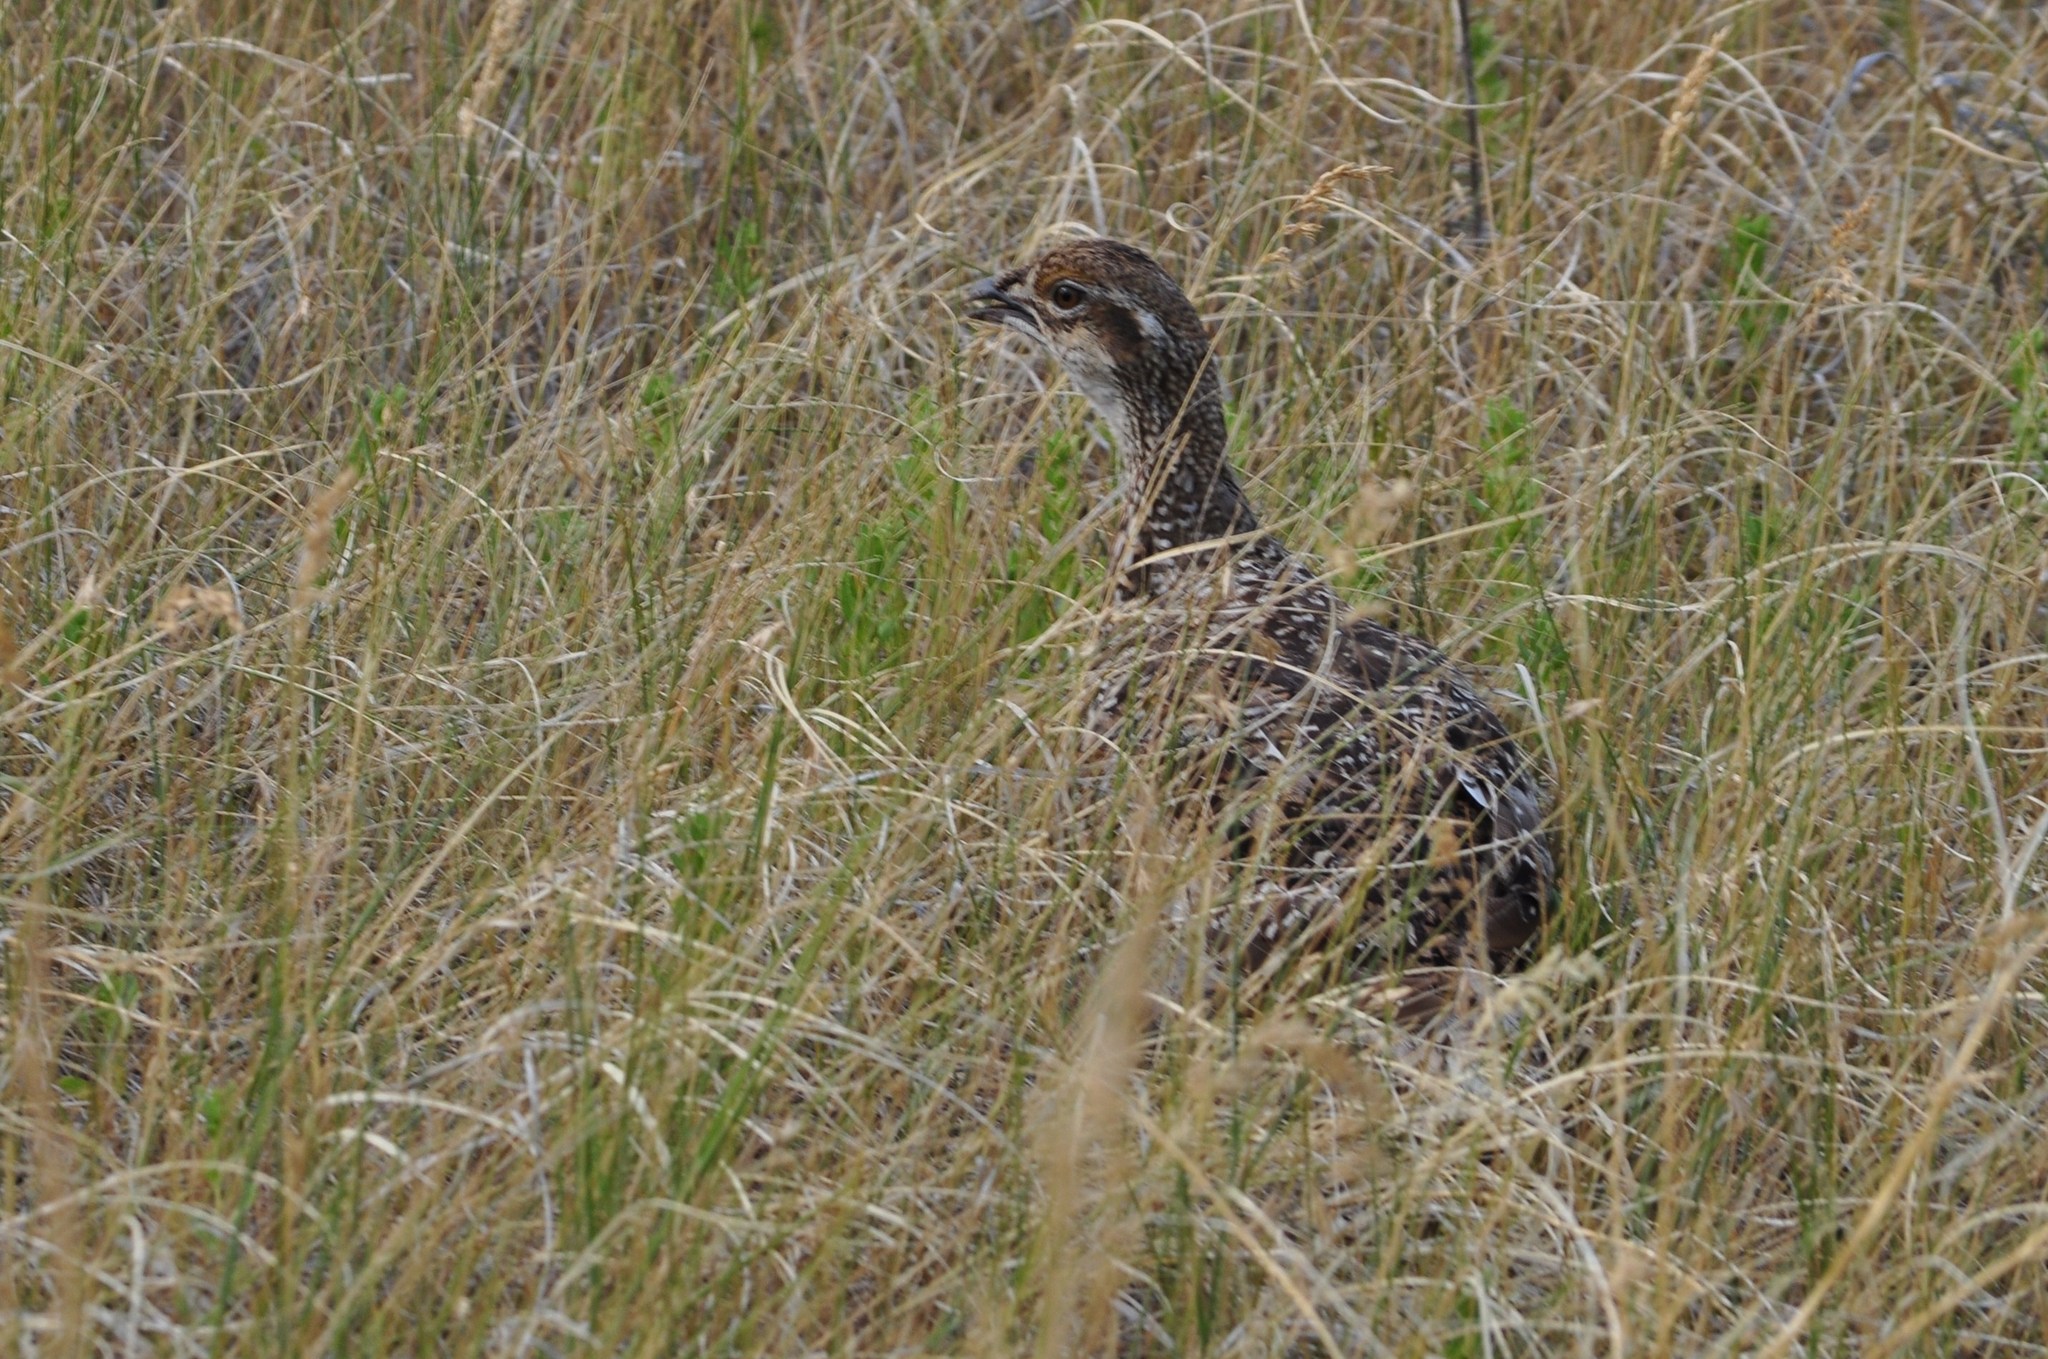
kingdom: Animalia
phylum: Chordata
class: Aves
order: Galliformes
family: Phasianidae
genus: Centrocercus
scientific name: Centrocercus urophasianus
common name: Sage grouse
